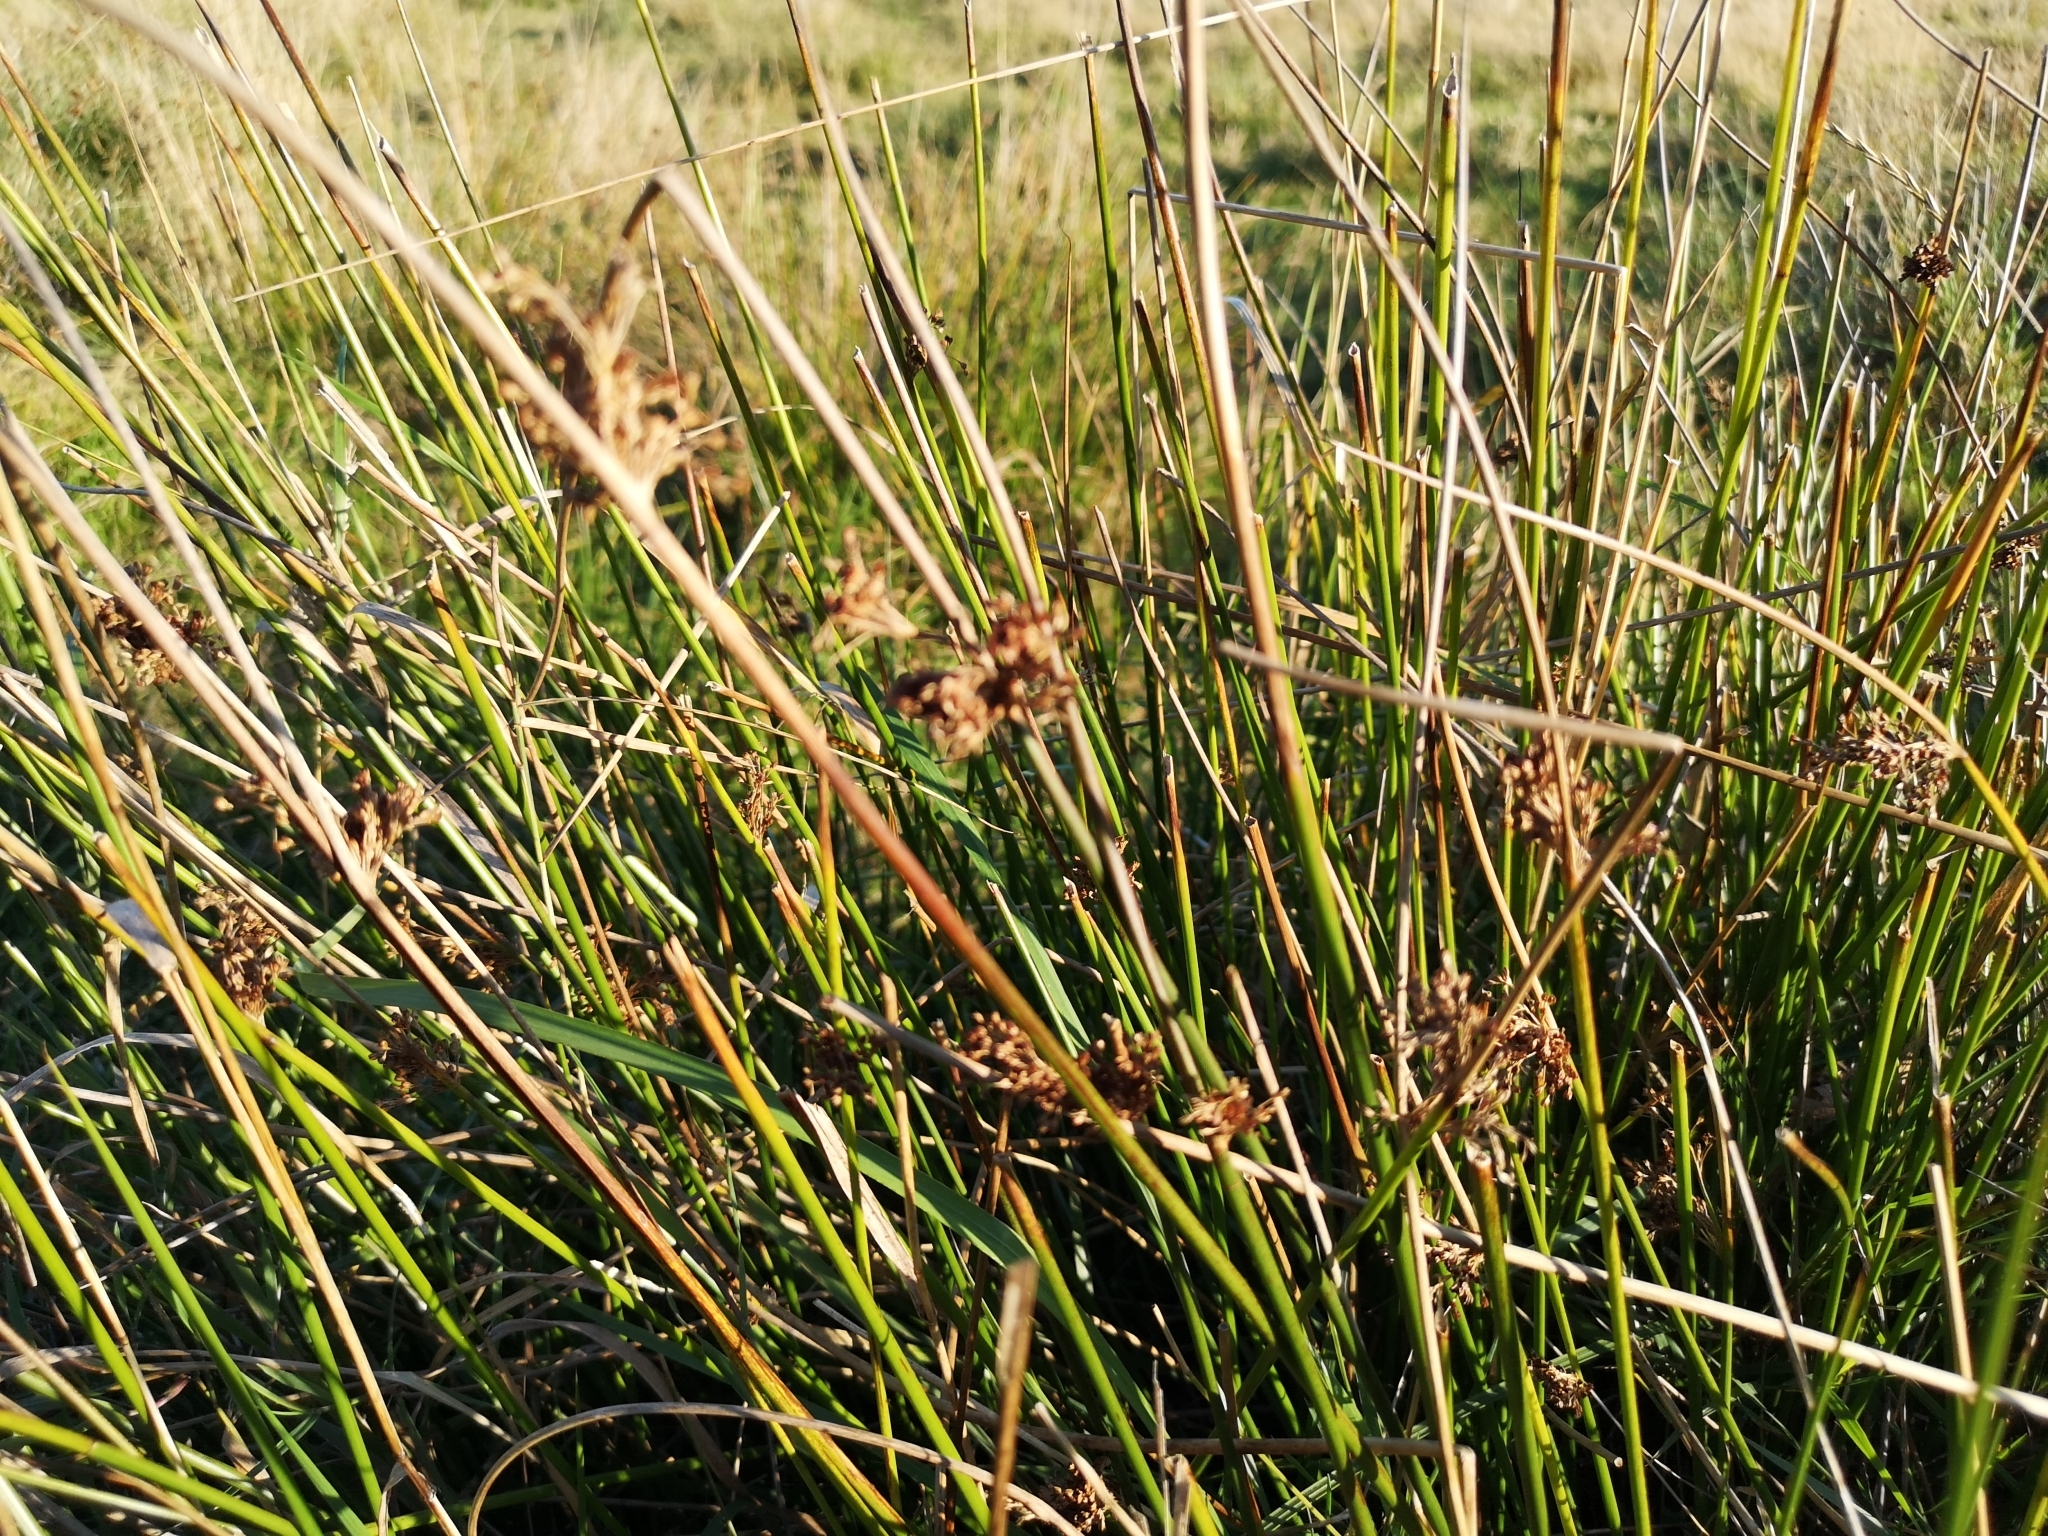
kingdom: Plantae
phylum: Tracheophyta
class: Liliopsida
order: Poales
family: Juncaceae
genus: Juncus
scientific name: Juncus effusus
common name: Soft rush
